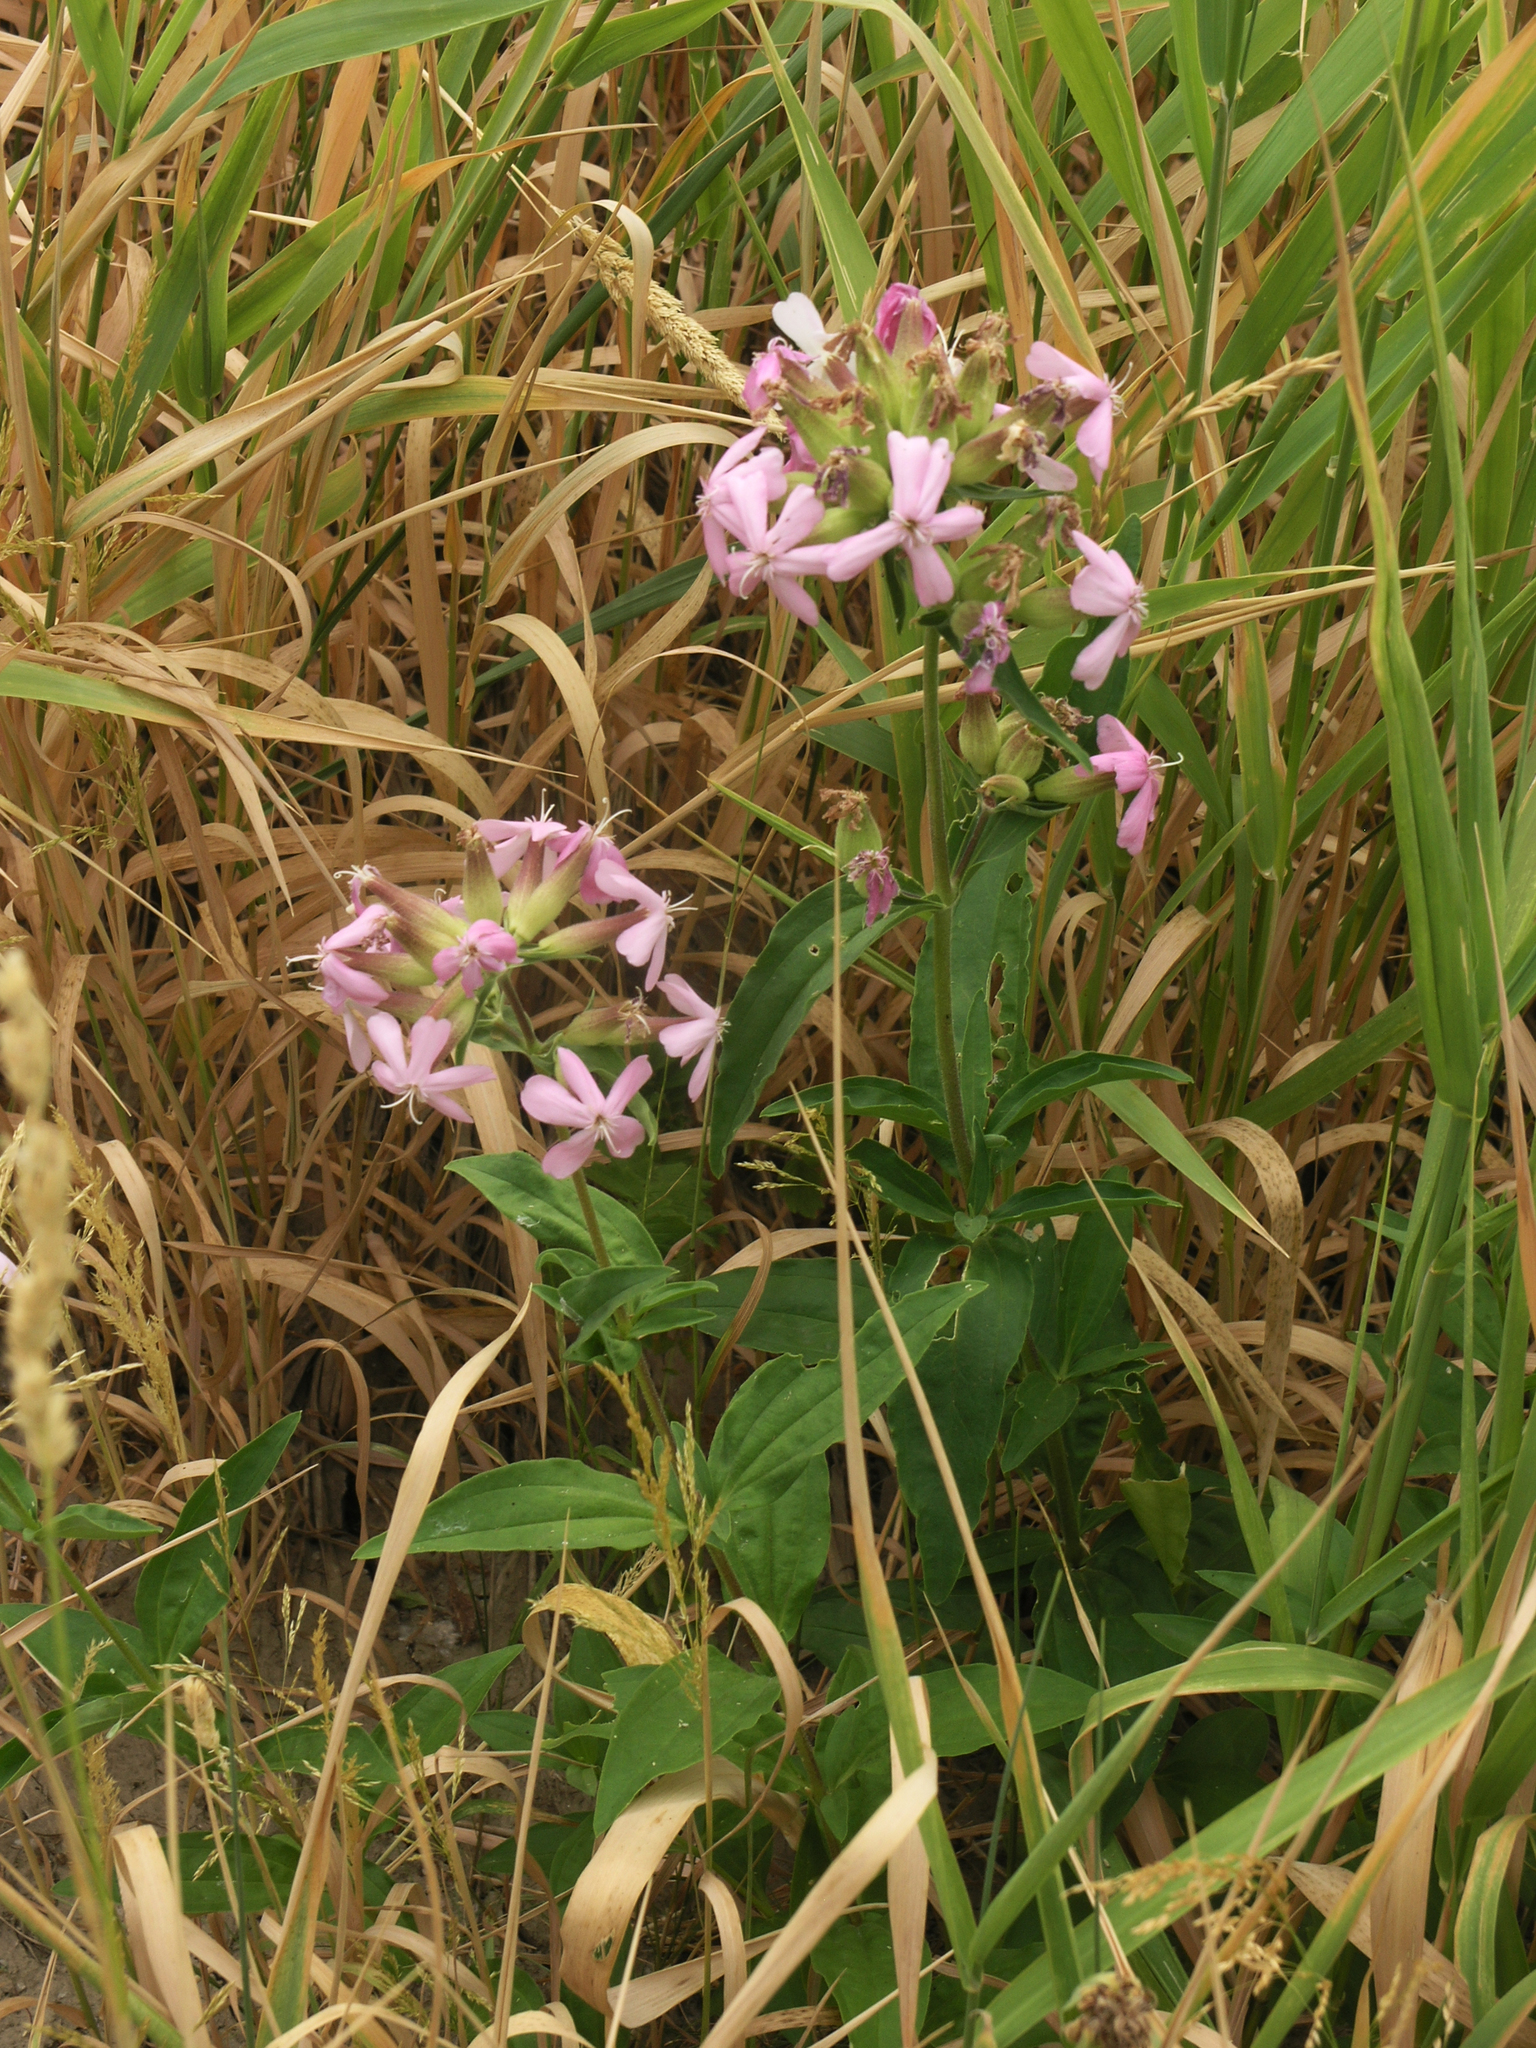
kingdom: Plantae
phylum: Tracheophyta
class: Magnoliopsida
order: Caryophyllales
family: Caryophyllaceae
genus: Saponaria
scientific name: Saponaria officinalis
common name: Soapwort
